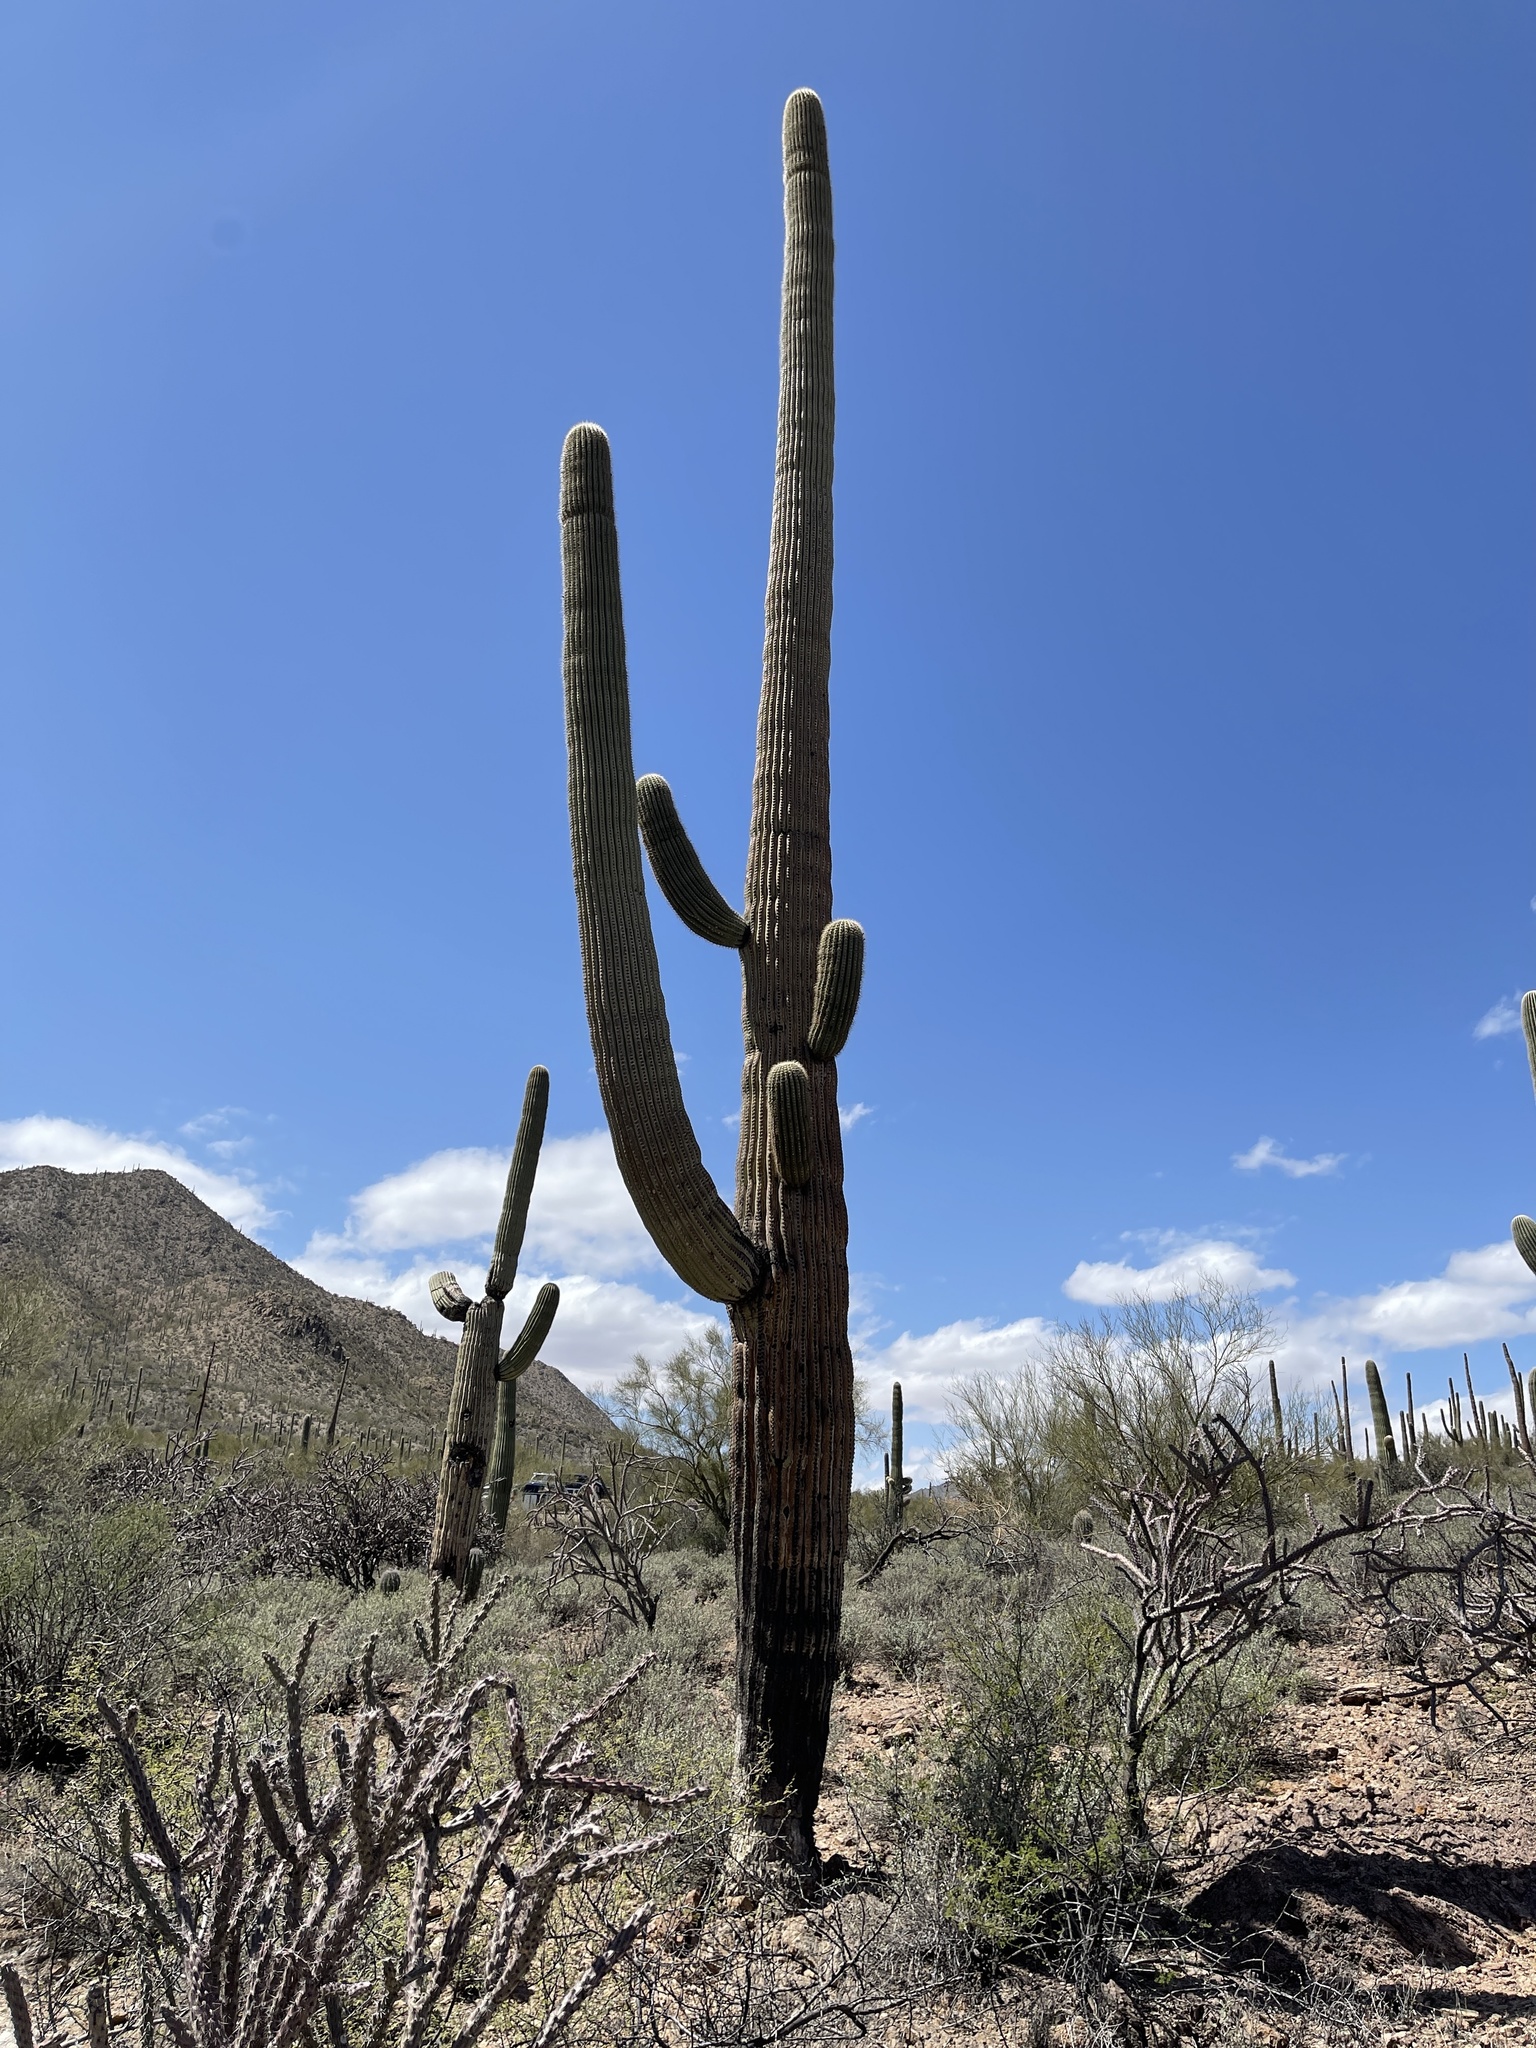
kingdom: Plantae
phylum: Tracheophyta
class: Magnoliopsida
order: Caryophyllales
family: Cactaceae
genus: Carnegiea
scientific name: Carnegiea gigantea
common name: Saguaro
